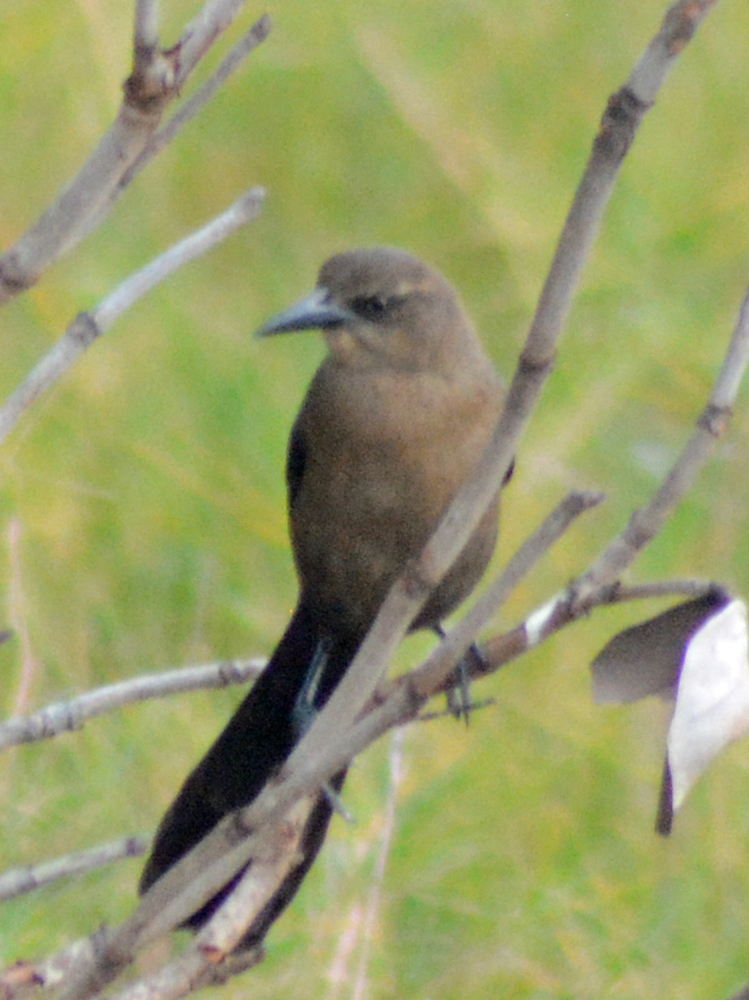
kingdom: Animalia
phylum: Chordata
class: Aves
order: Passeriformes
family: Icteridae
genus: Quiscalus
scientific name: Quiscalus mexicanus
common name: Great-tailed grackle
